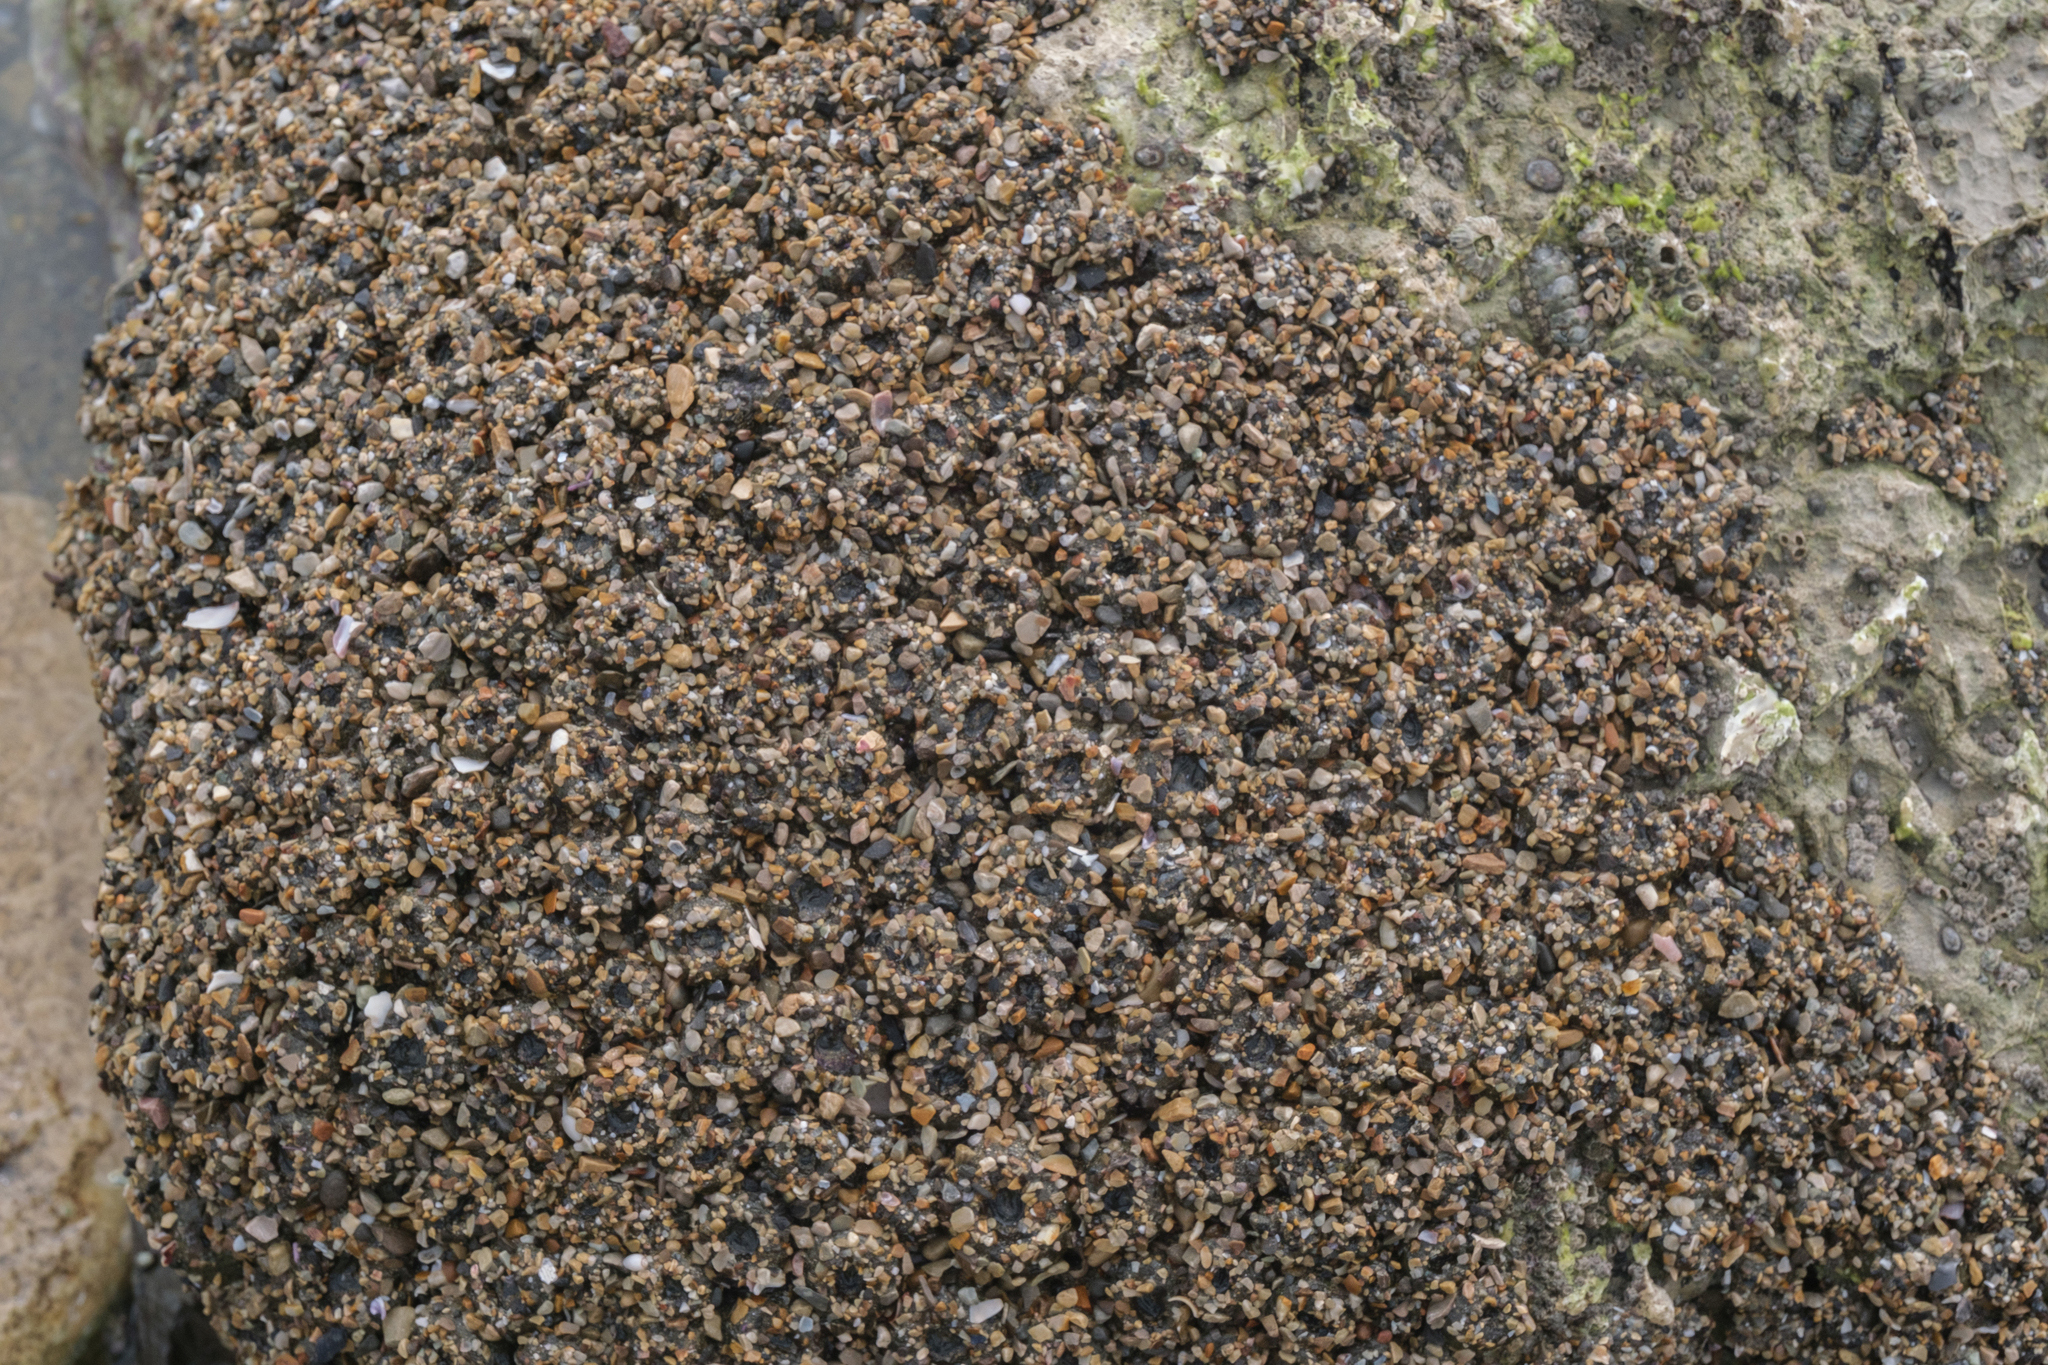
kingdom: Animalia
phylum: Cnidaria
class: Anthozoa
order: Actiniaria
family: Actiniidae
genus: Anthopleura
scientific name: Anthopleura elegantissima
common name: Clonal anemone
